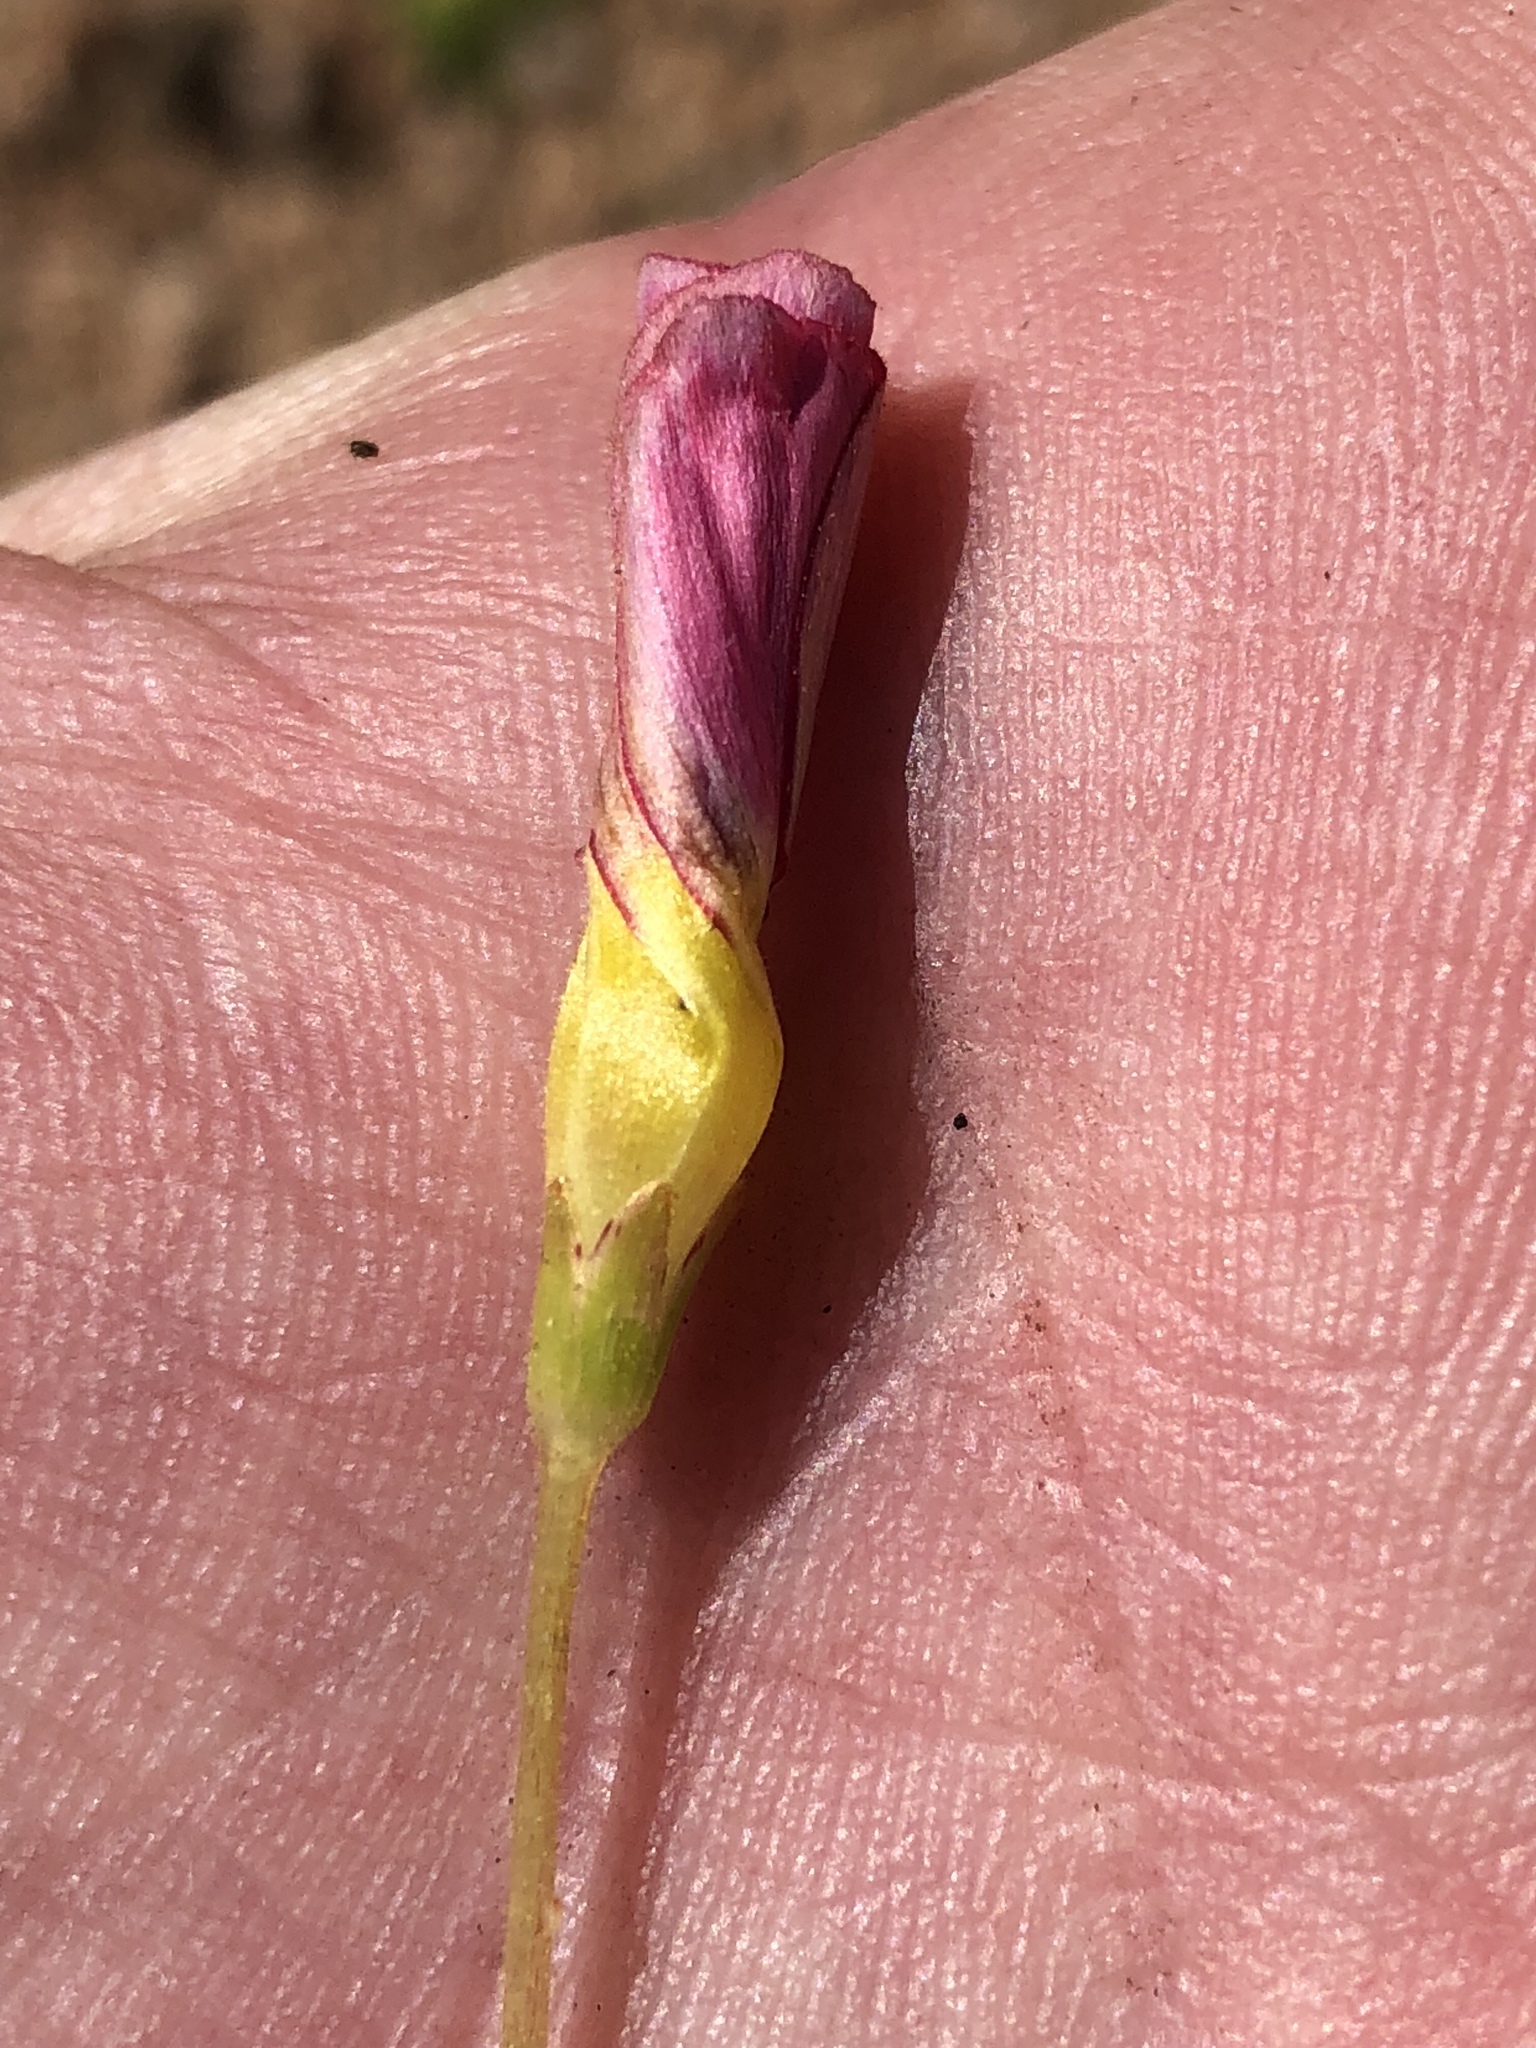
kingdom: Plantae
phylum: Tracheophyta
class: Magnoliopsida
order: Oxalidales
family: Oxalidaceae
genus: Oxalis
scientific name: Oxalis inaequalis
